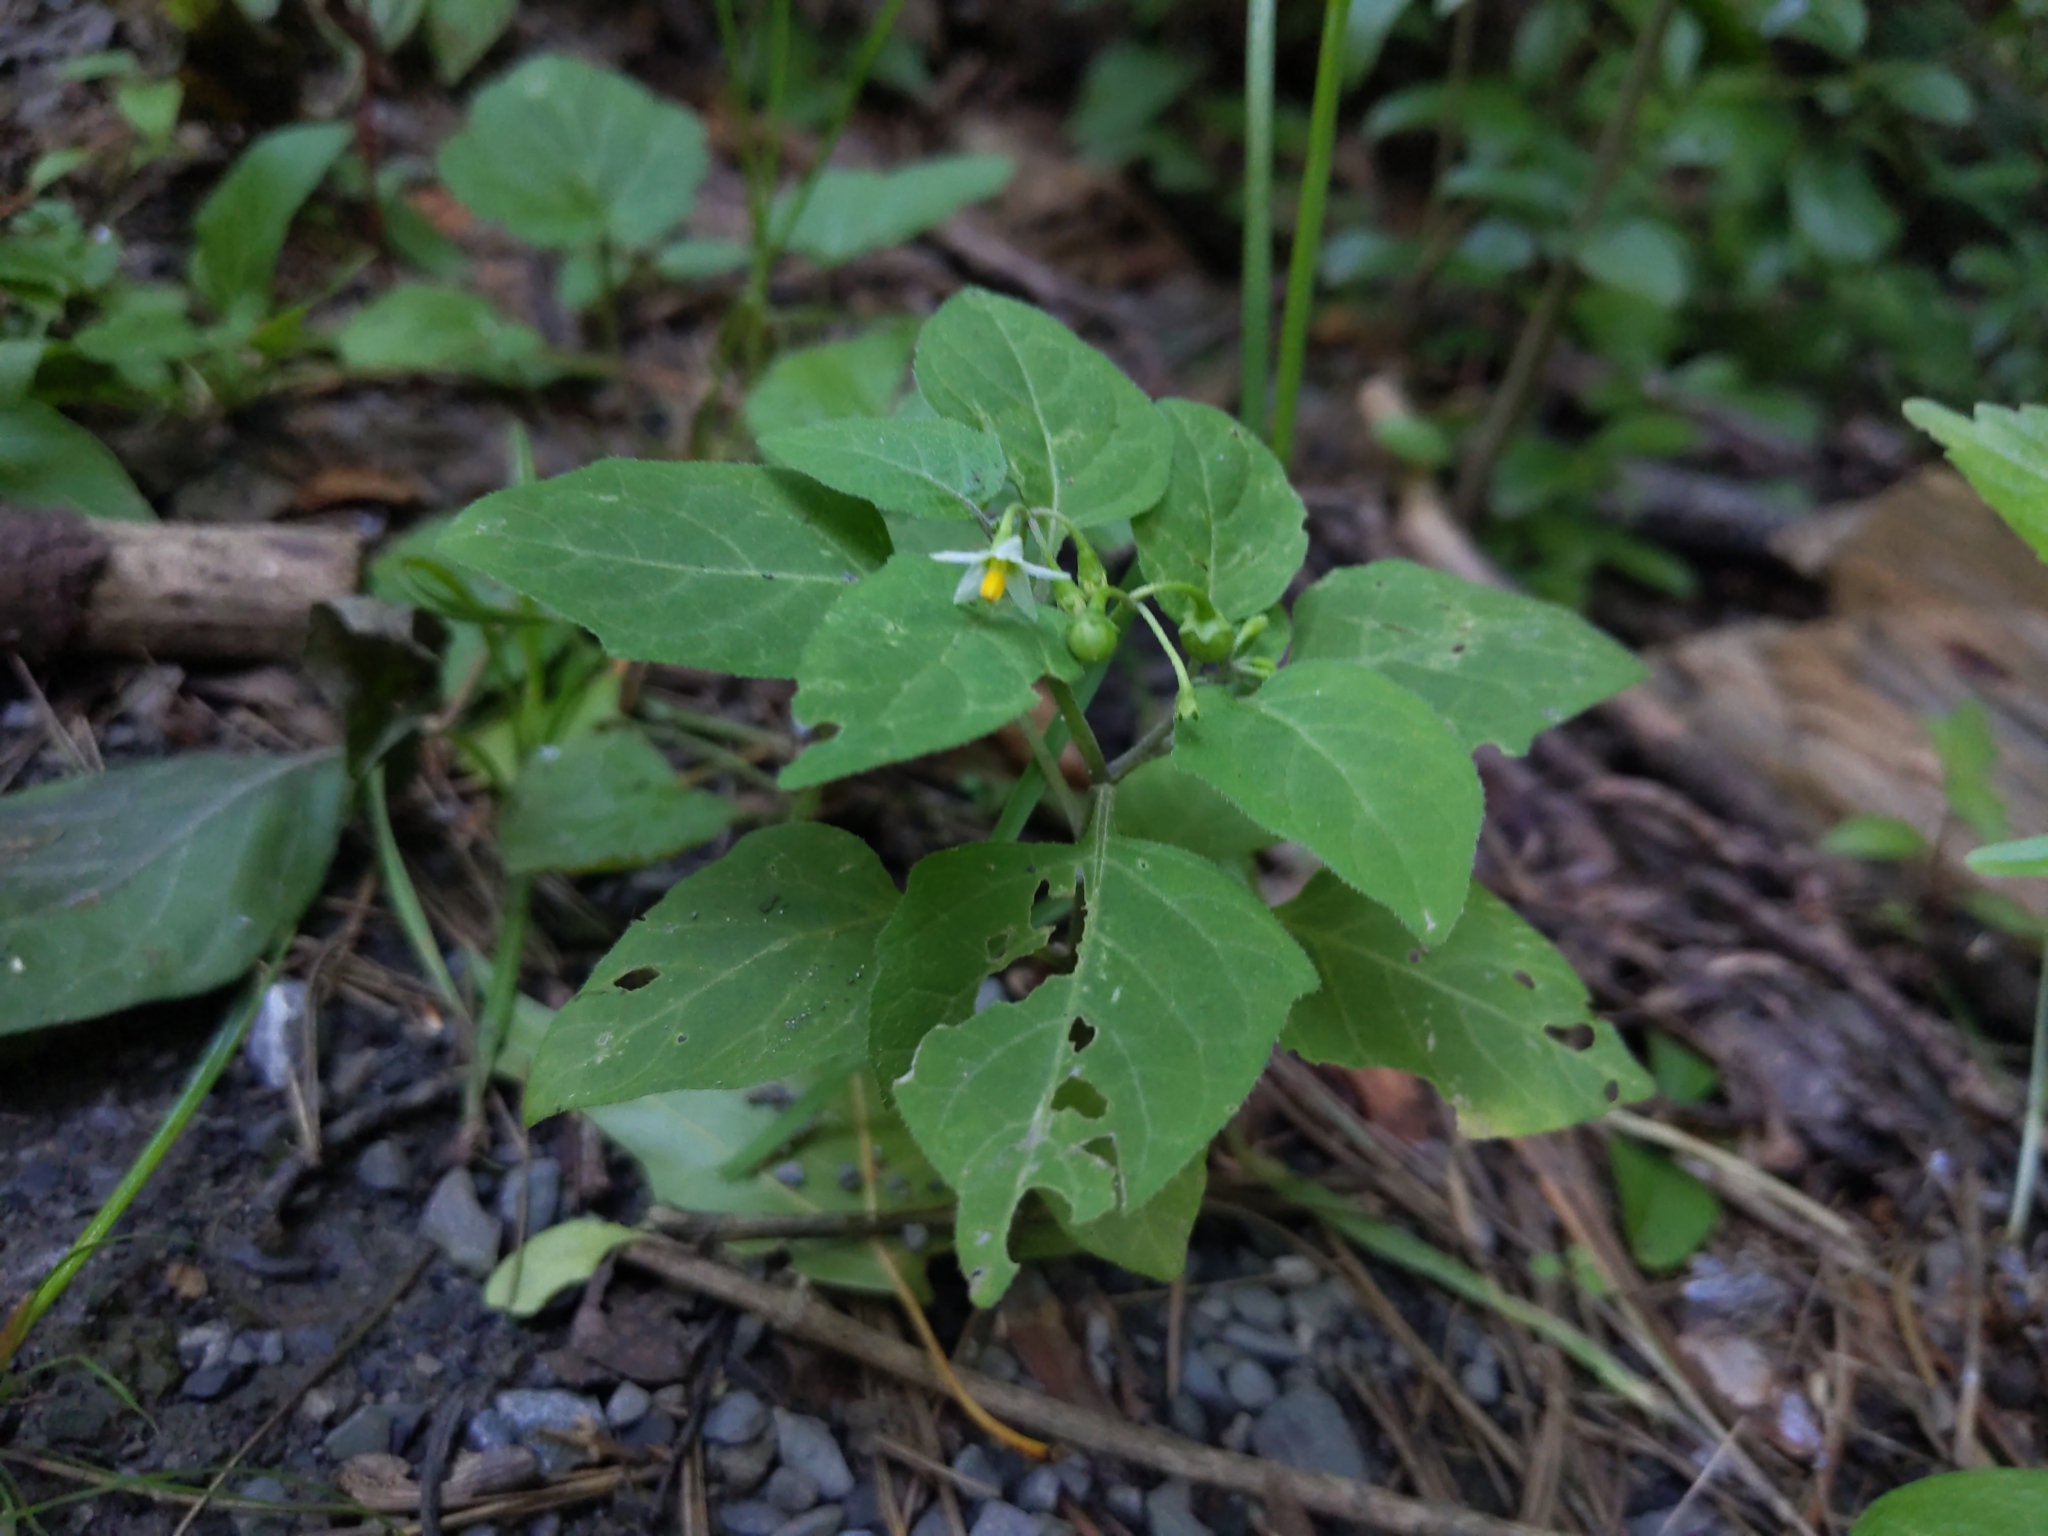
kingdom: Plantae
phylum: Tracheophyta
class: Magnoliopsida
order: Solanales
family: Solanaceae
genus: Solanum
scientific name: Solanum emulans
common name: Eastern black nightshade
